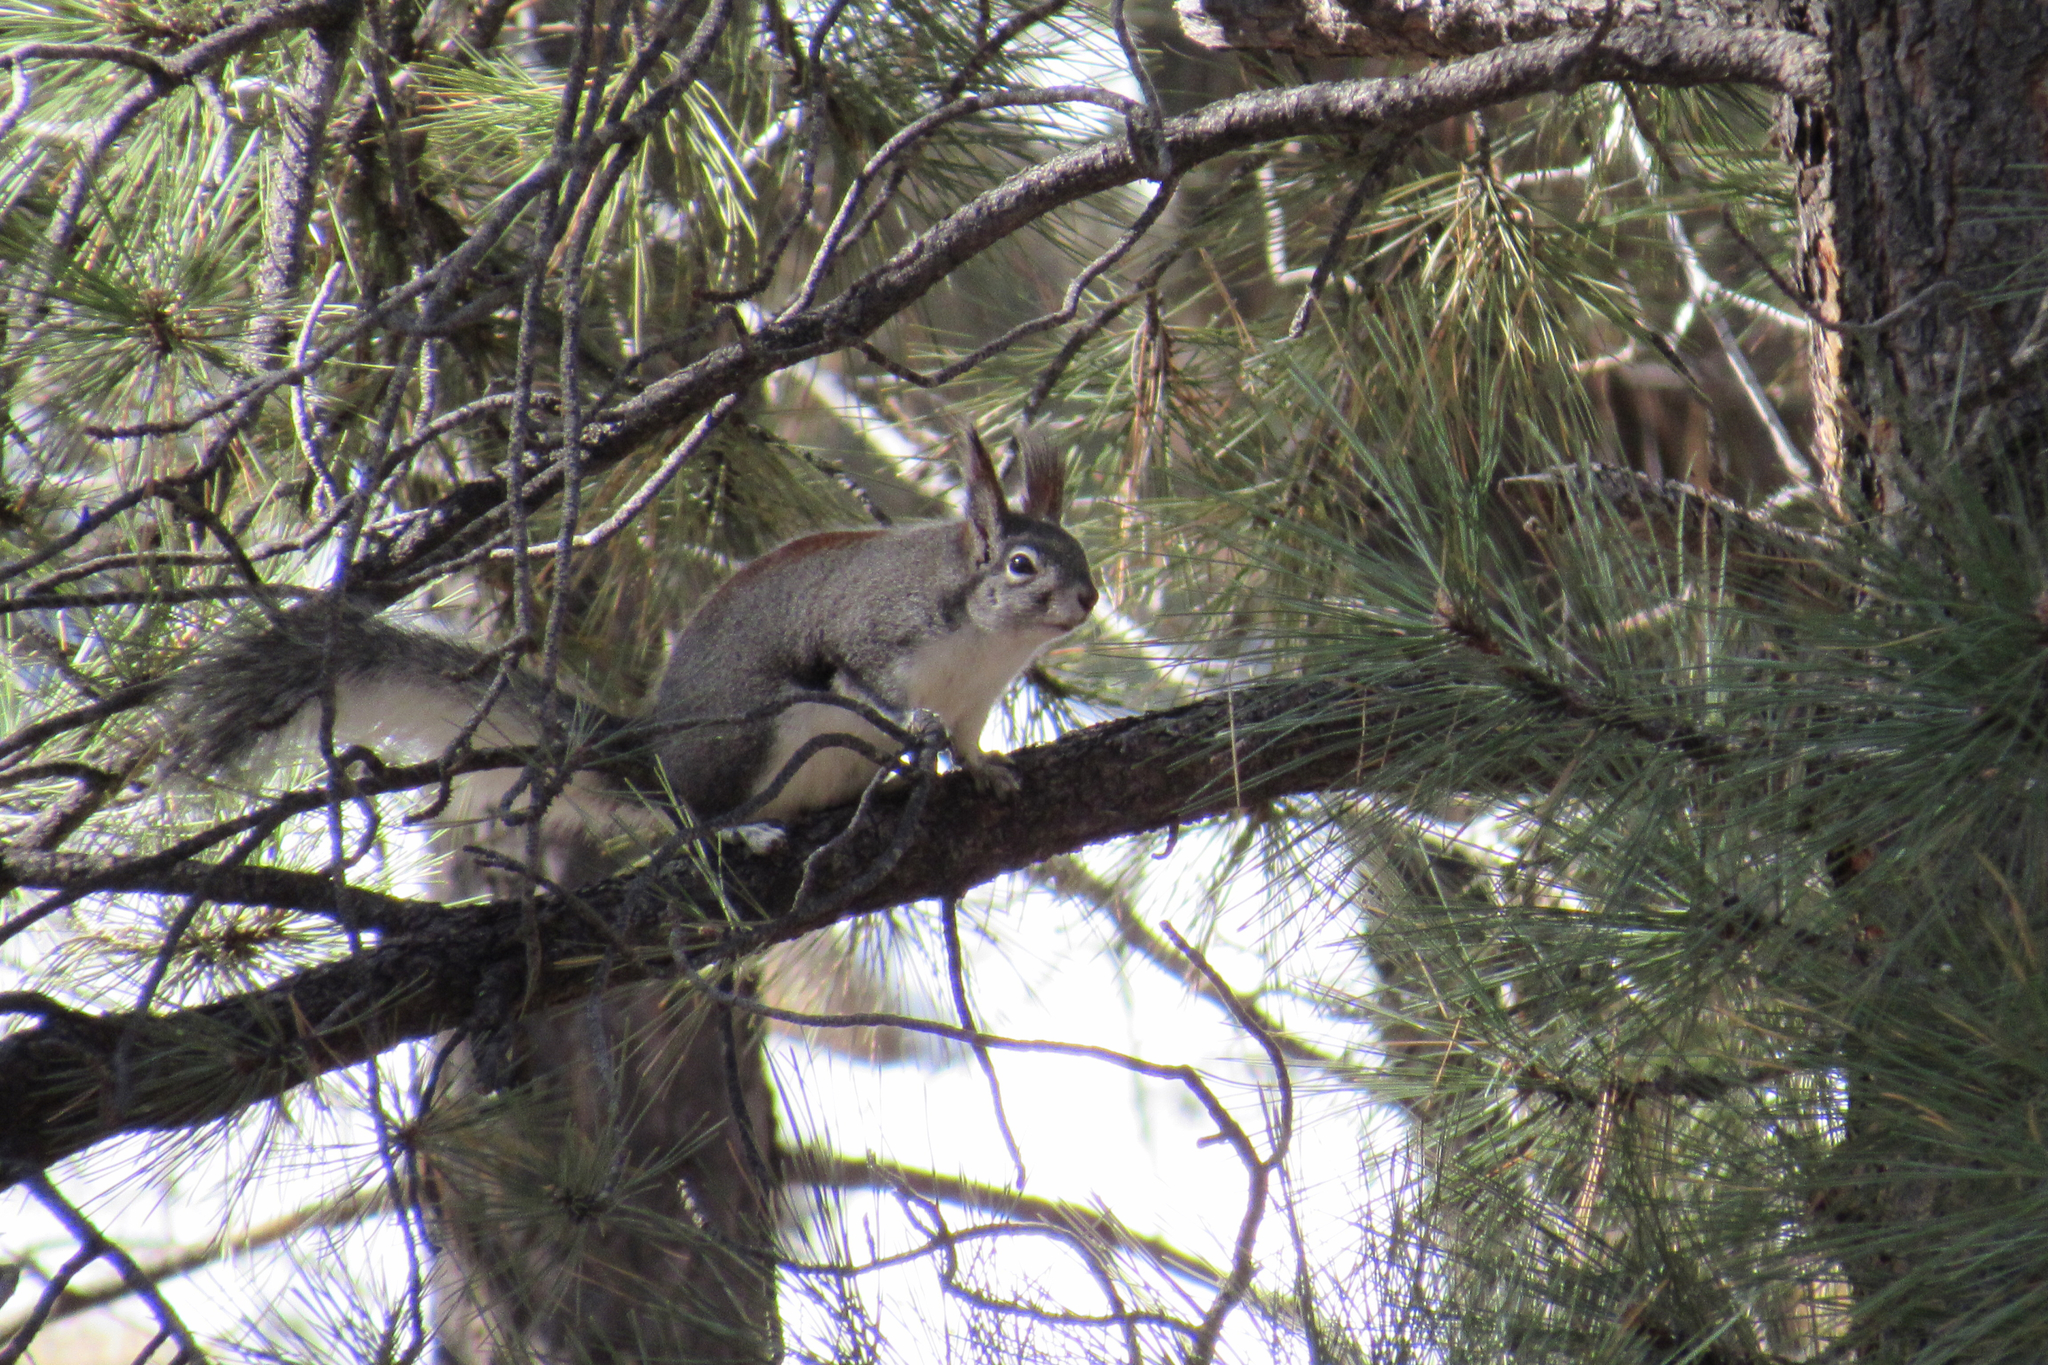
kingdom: Animalia
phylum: Chordata
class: Mammalia
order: Rodentia
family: Sciuridae
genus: Sciurus
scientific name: Sciurus aberti
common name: Abert's squirrel
